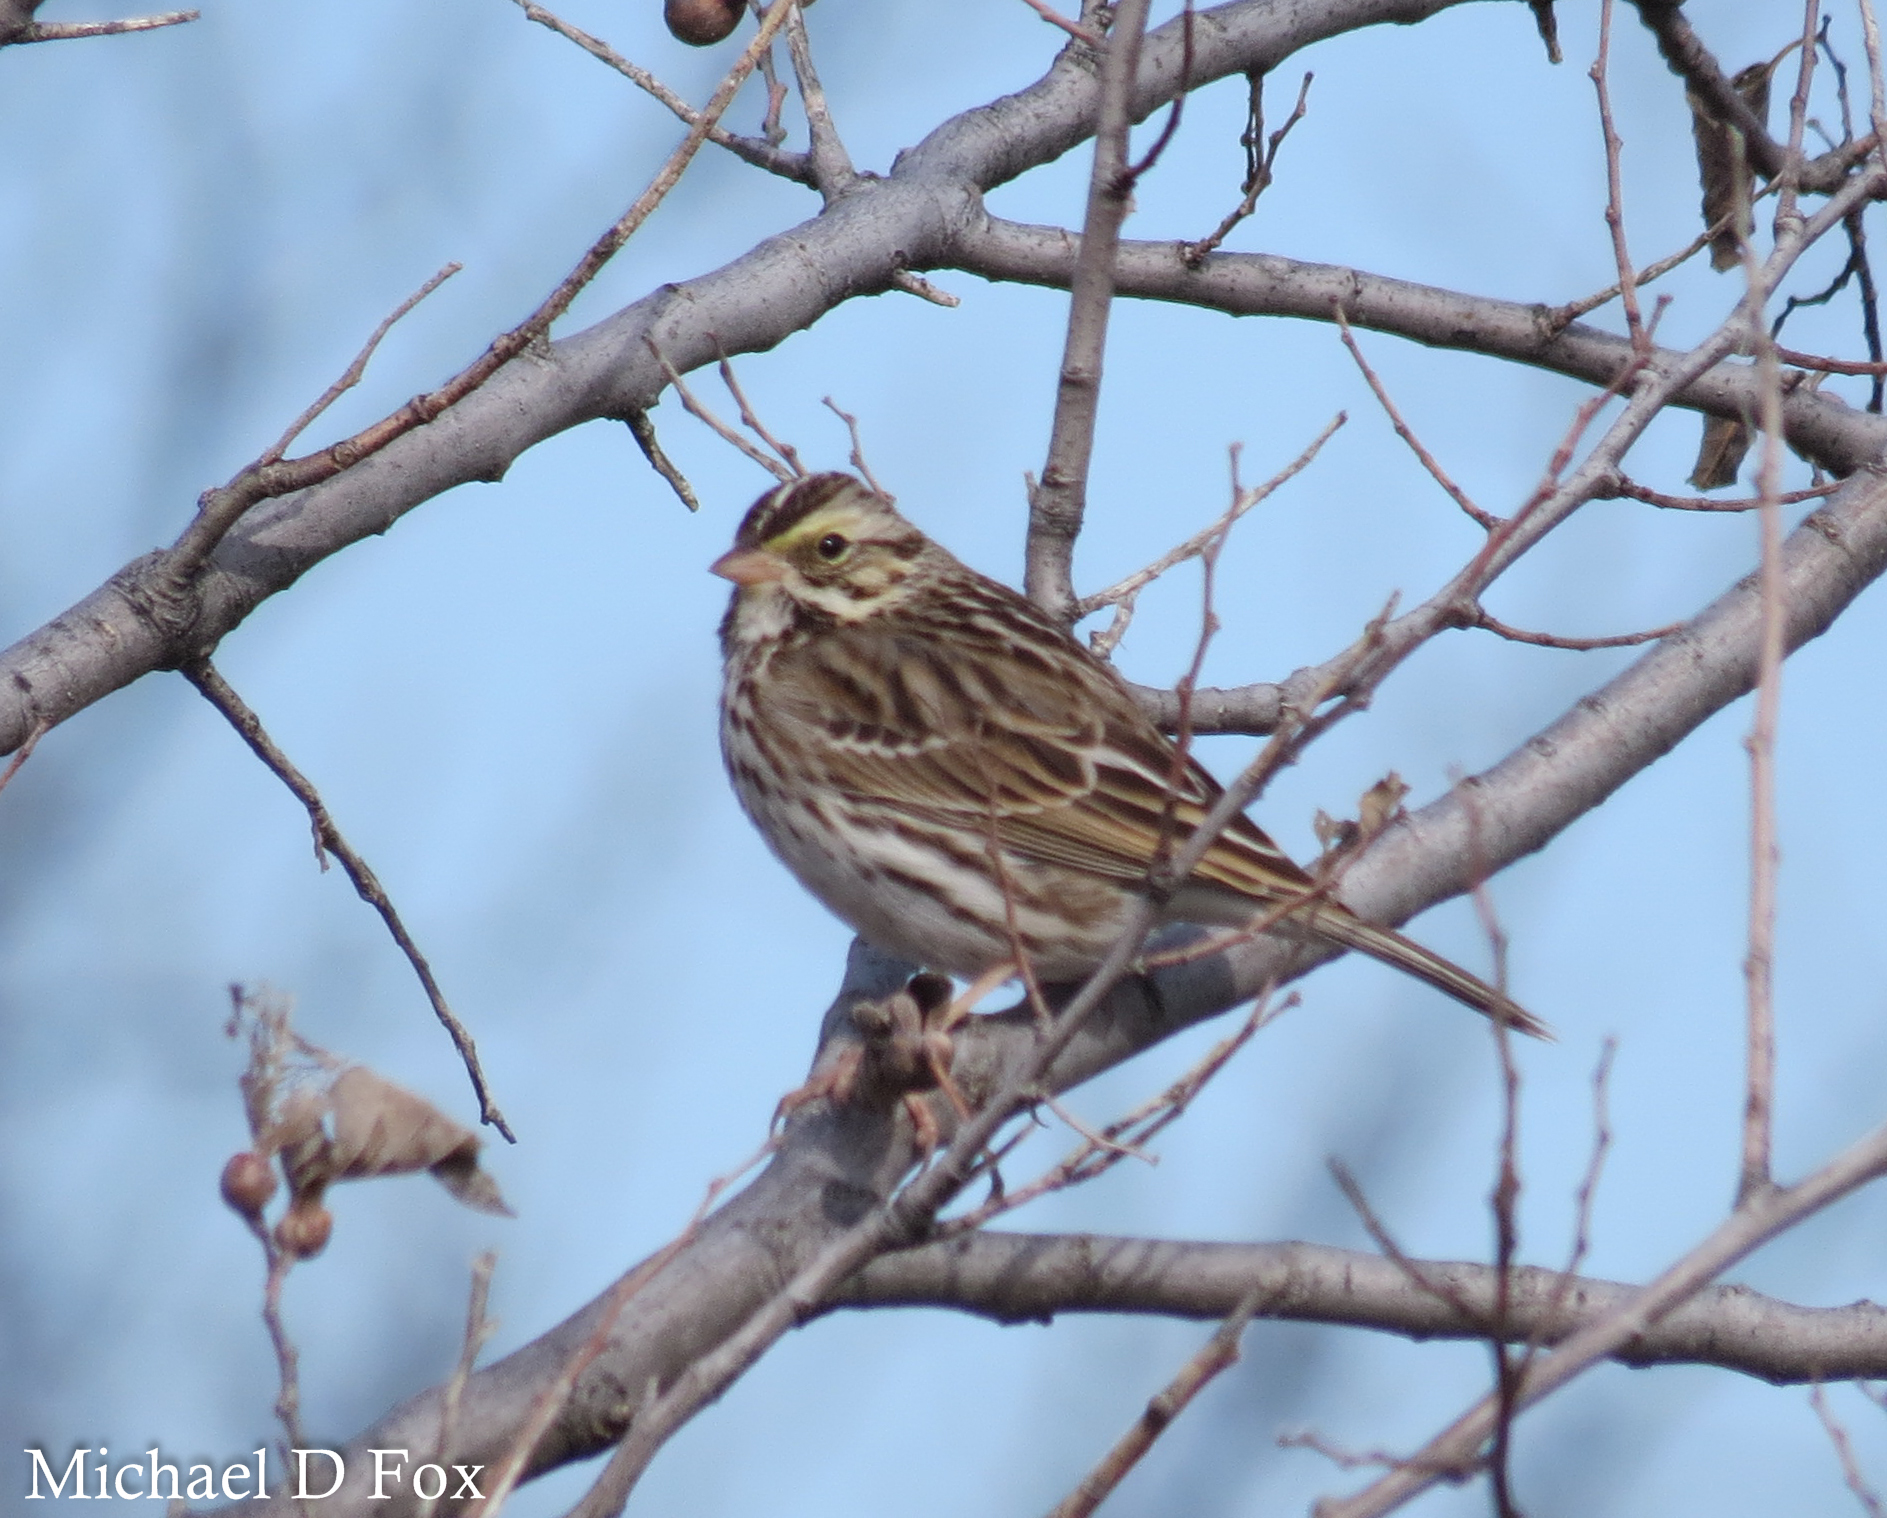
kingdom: Animalia
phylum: Chordata
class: Aves
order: Passeriformes
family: Passerellidae
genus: Passerculus
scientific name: Passerculus sandwichensis
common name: Savannah sparrow
